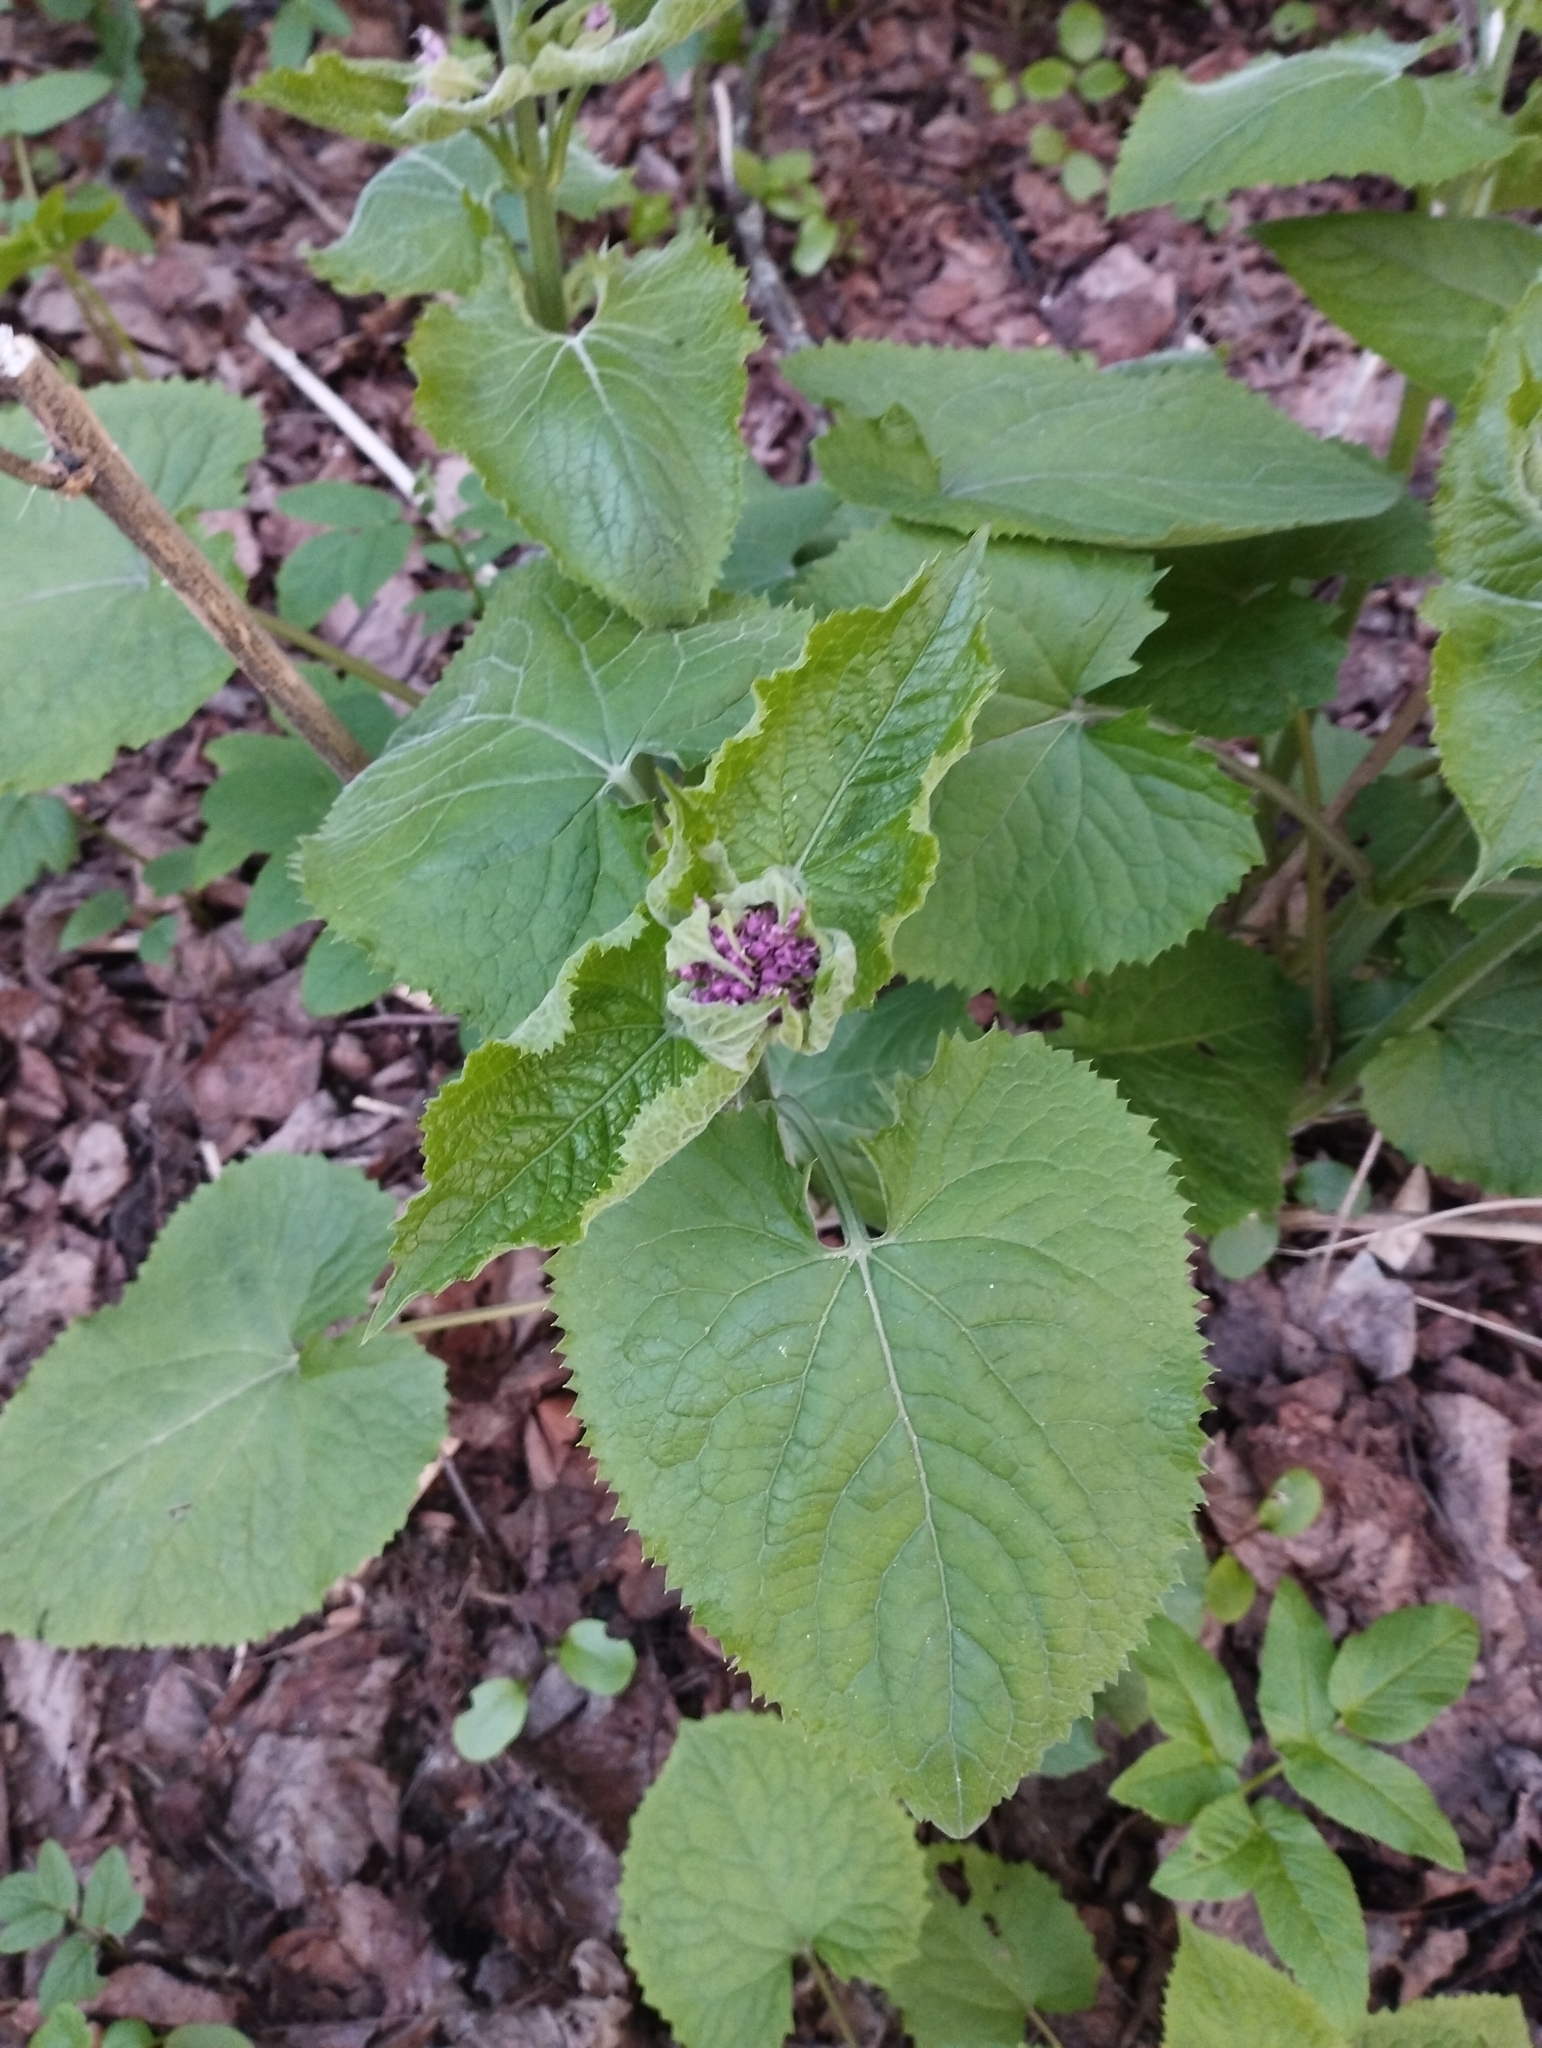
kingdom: Plantae
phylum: Tracheophyta
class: Magnoliopsida
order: Brassicales
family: Brassicaceae
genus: Lunaria
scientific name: Lunaria rediviva
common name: Perennial honesty
